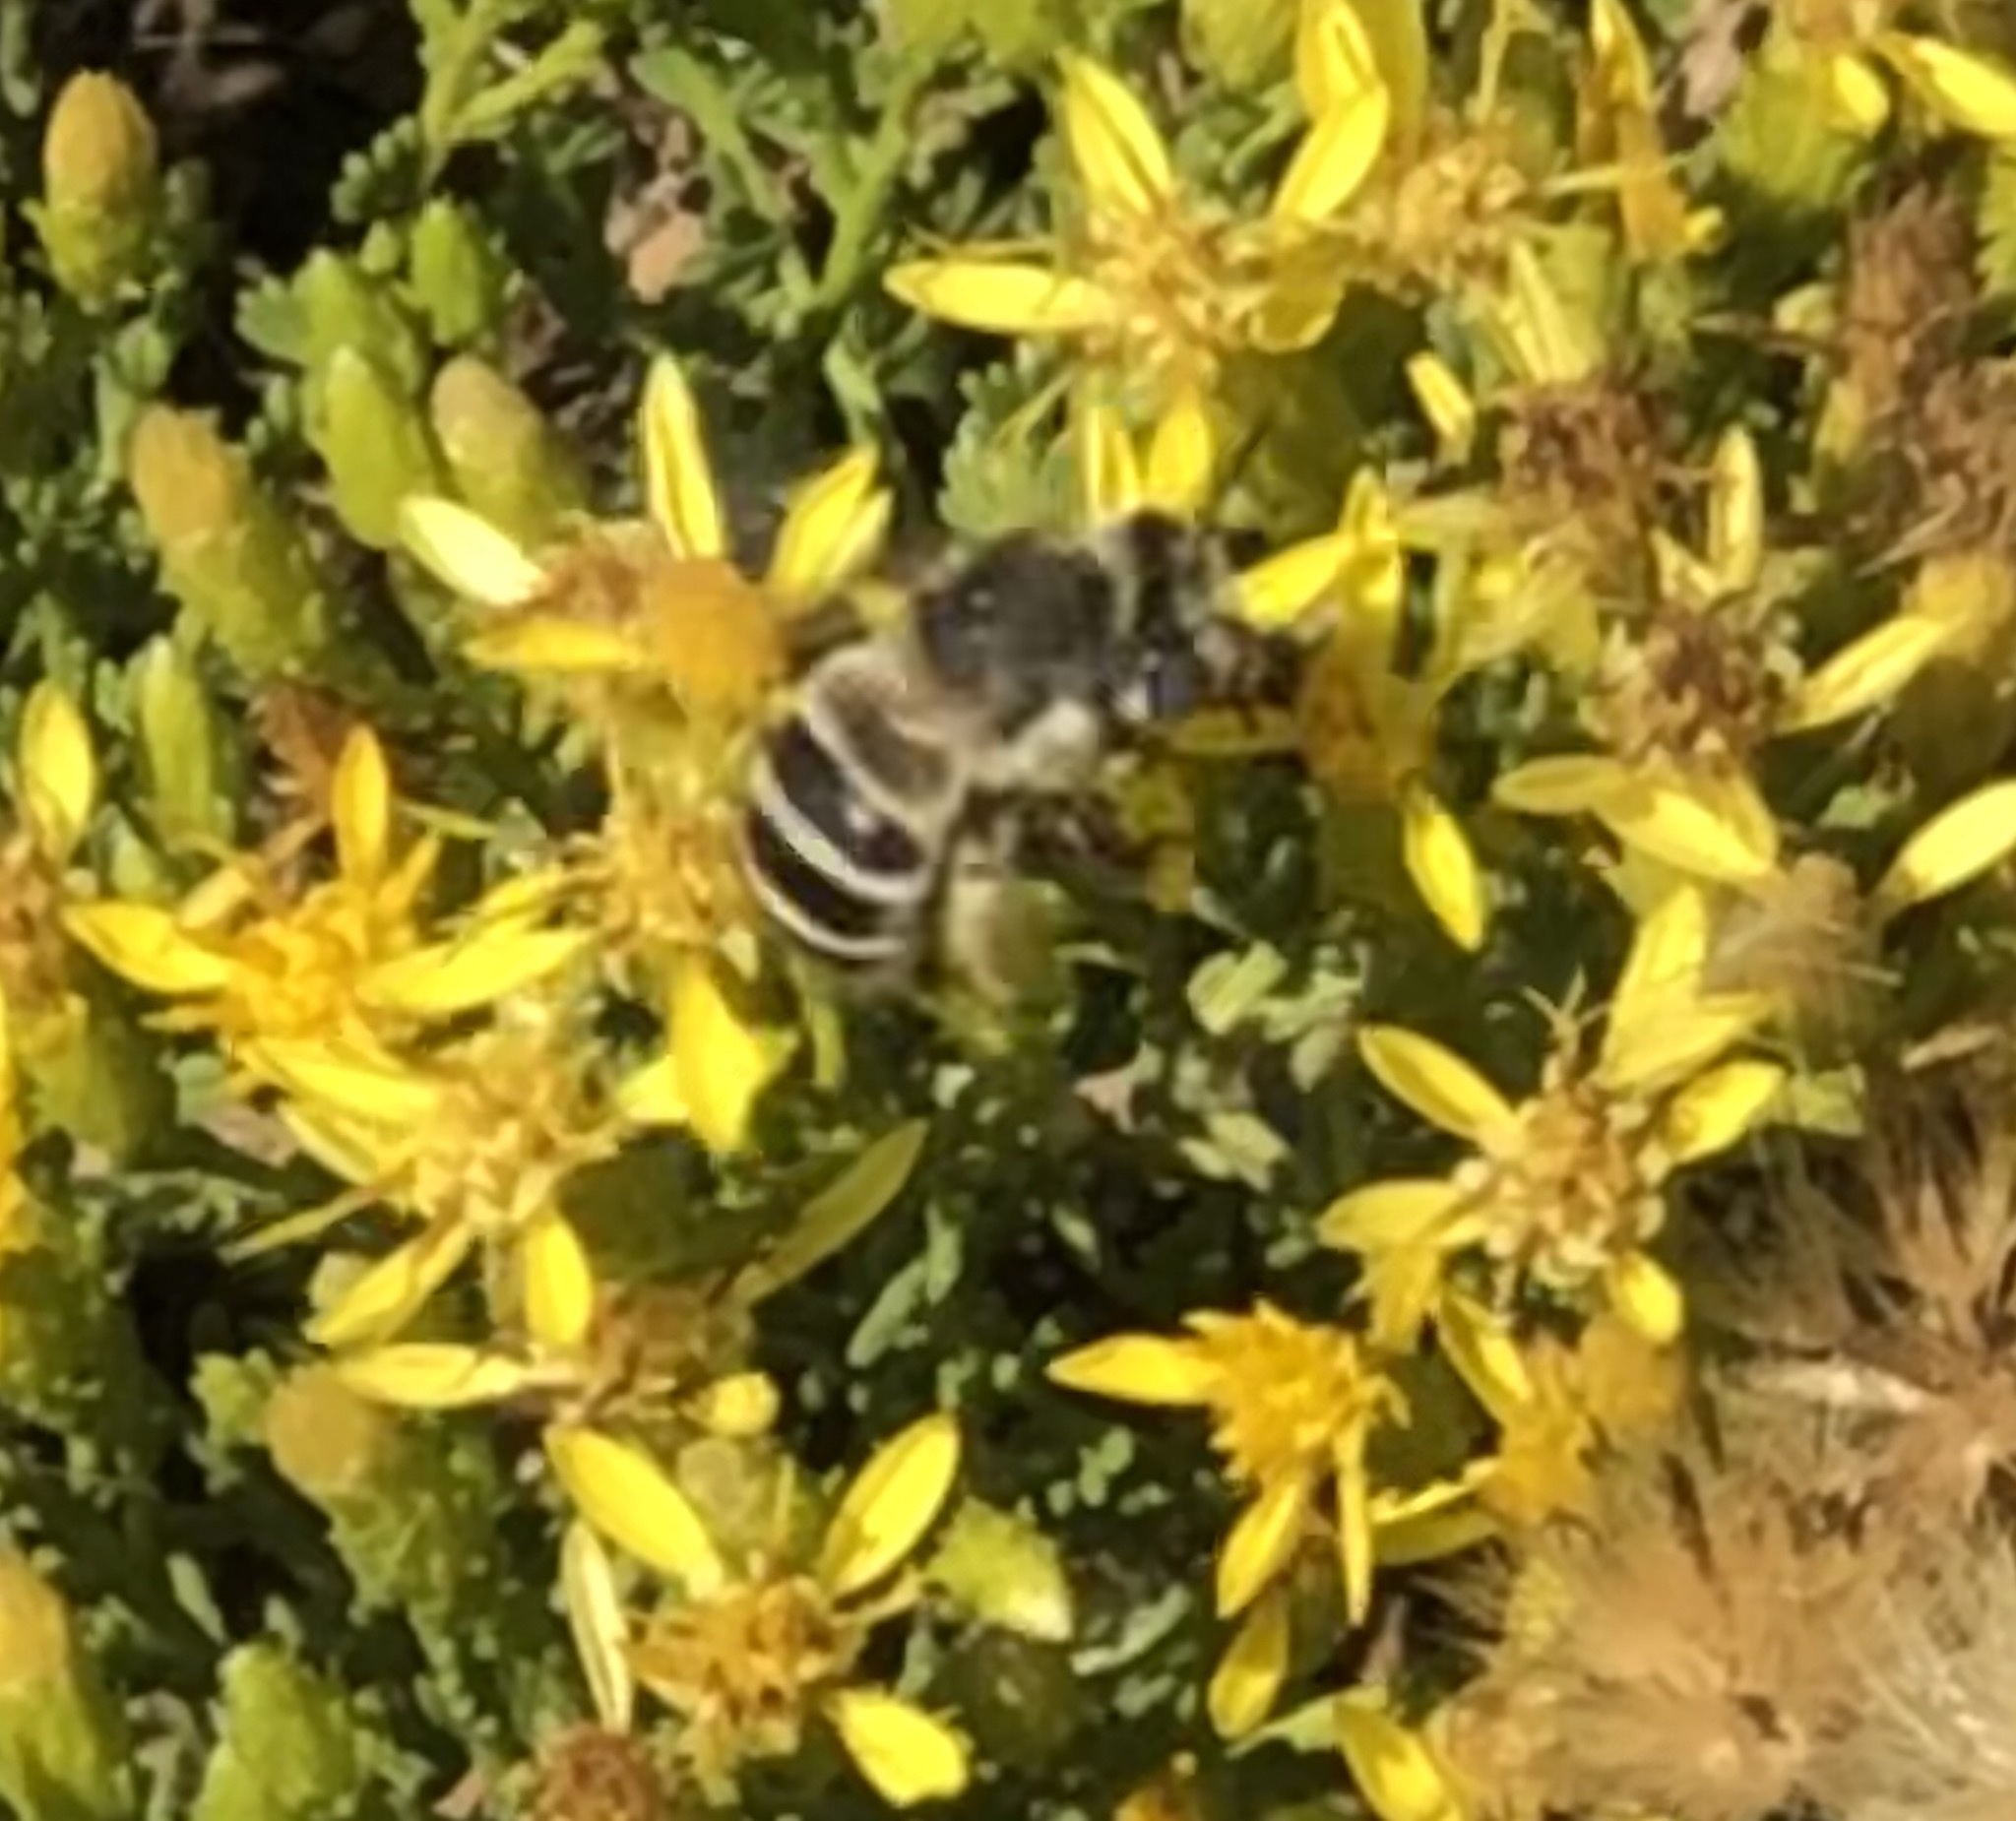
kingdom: Animalia
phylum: Arthropoda
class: Insecta
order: Hymenoptera
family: Apidae
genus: Anthophora
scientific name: Anthophora urbana
